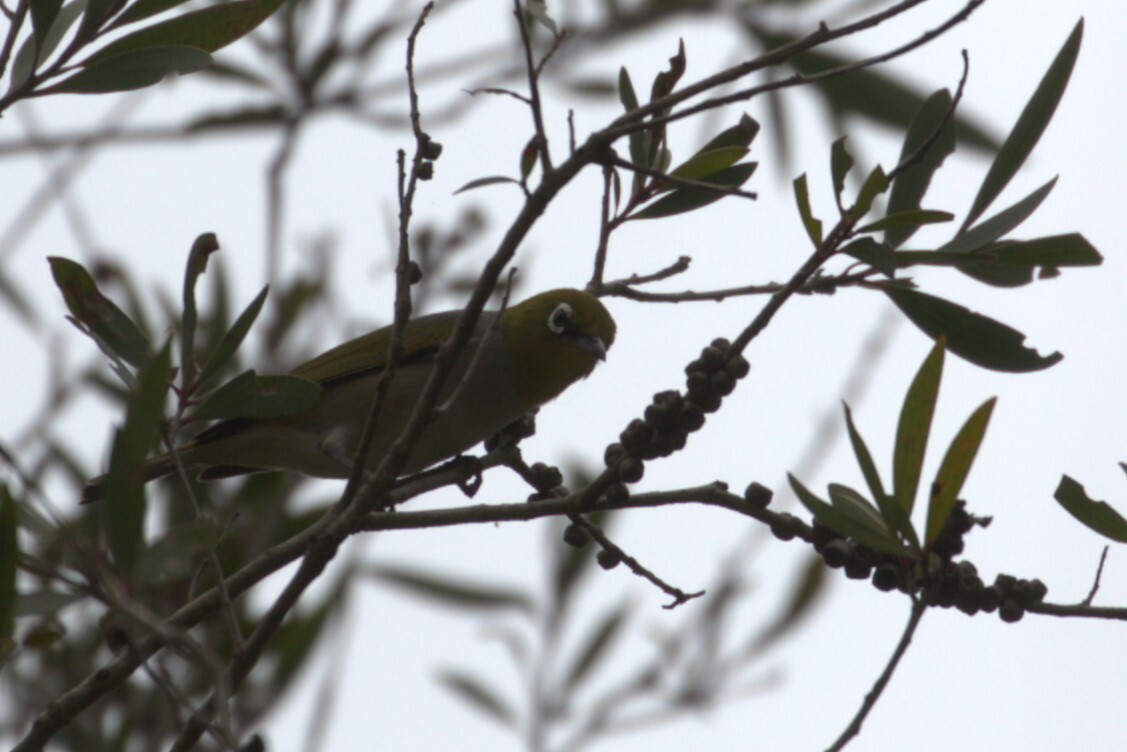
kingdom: Animalia
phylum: Chordata
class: Aves
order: Passeriformes
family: Zosteropidae
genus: Zosterops
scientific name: Zosterops lateralis
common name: Silvereye
